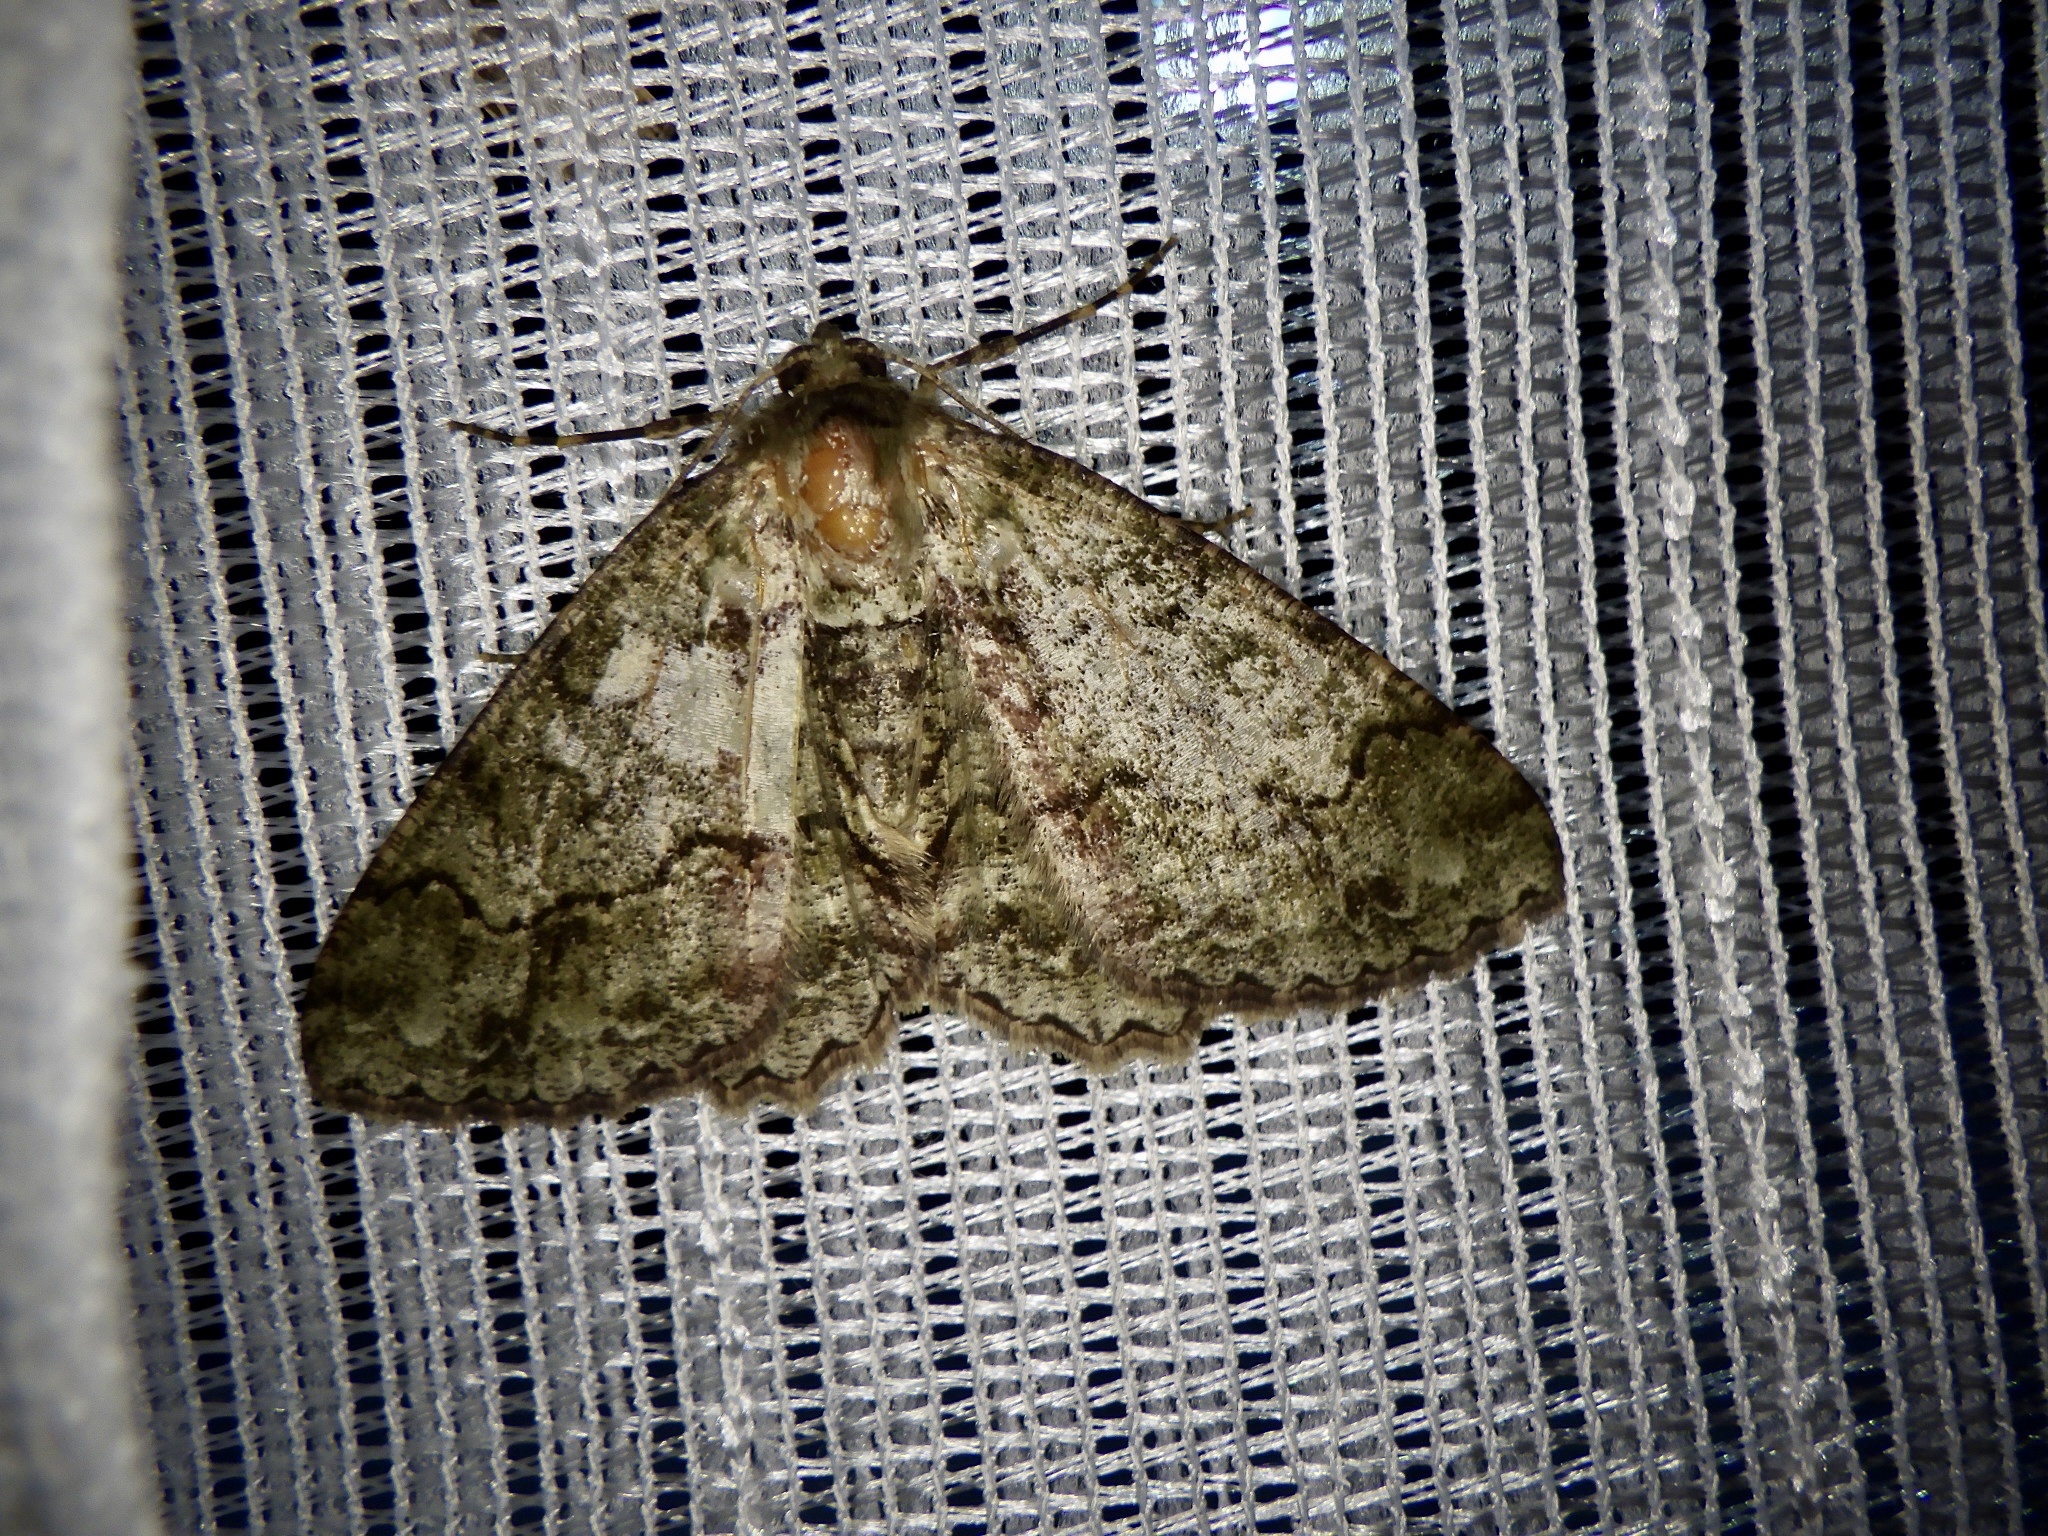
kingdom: Animalia
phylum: Arthropoda
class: Insecta
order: Lepidoptera
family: Geometridae
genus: Paradarisa
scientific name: Paradarisa chloauges
